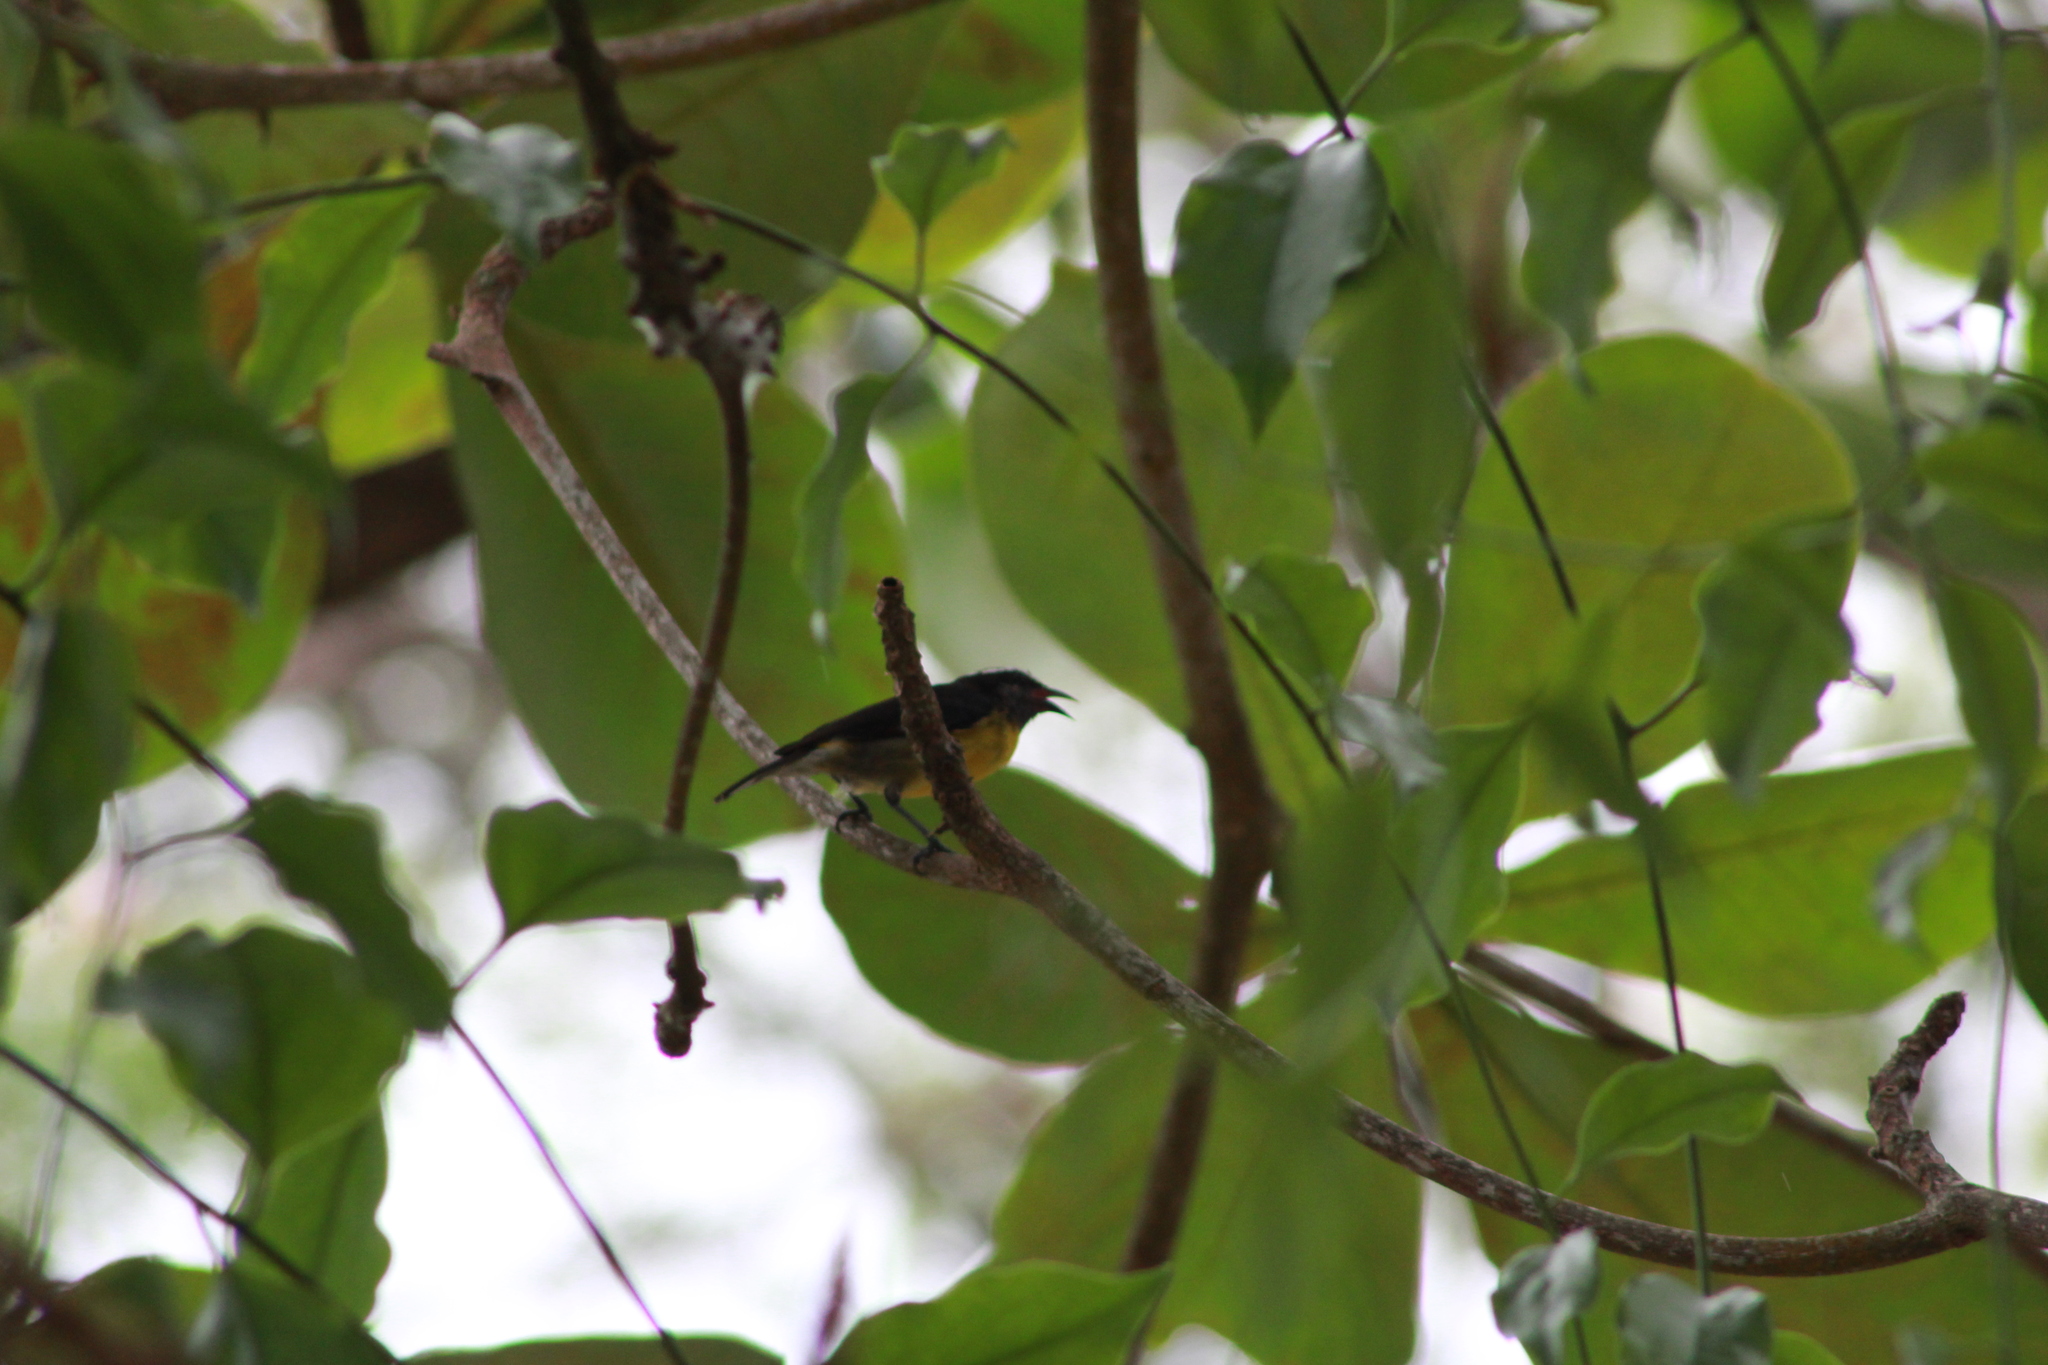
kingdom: Animalia
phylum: Chordata
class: Aves
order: Passeriformes
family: Thraupidae
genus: Coereba
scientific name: Coereba flaveola
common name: Bananaquit
